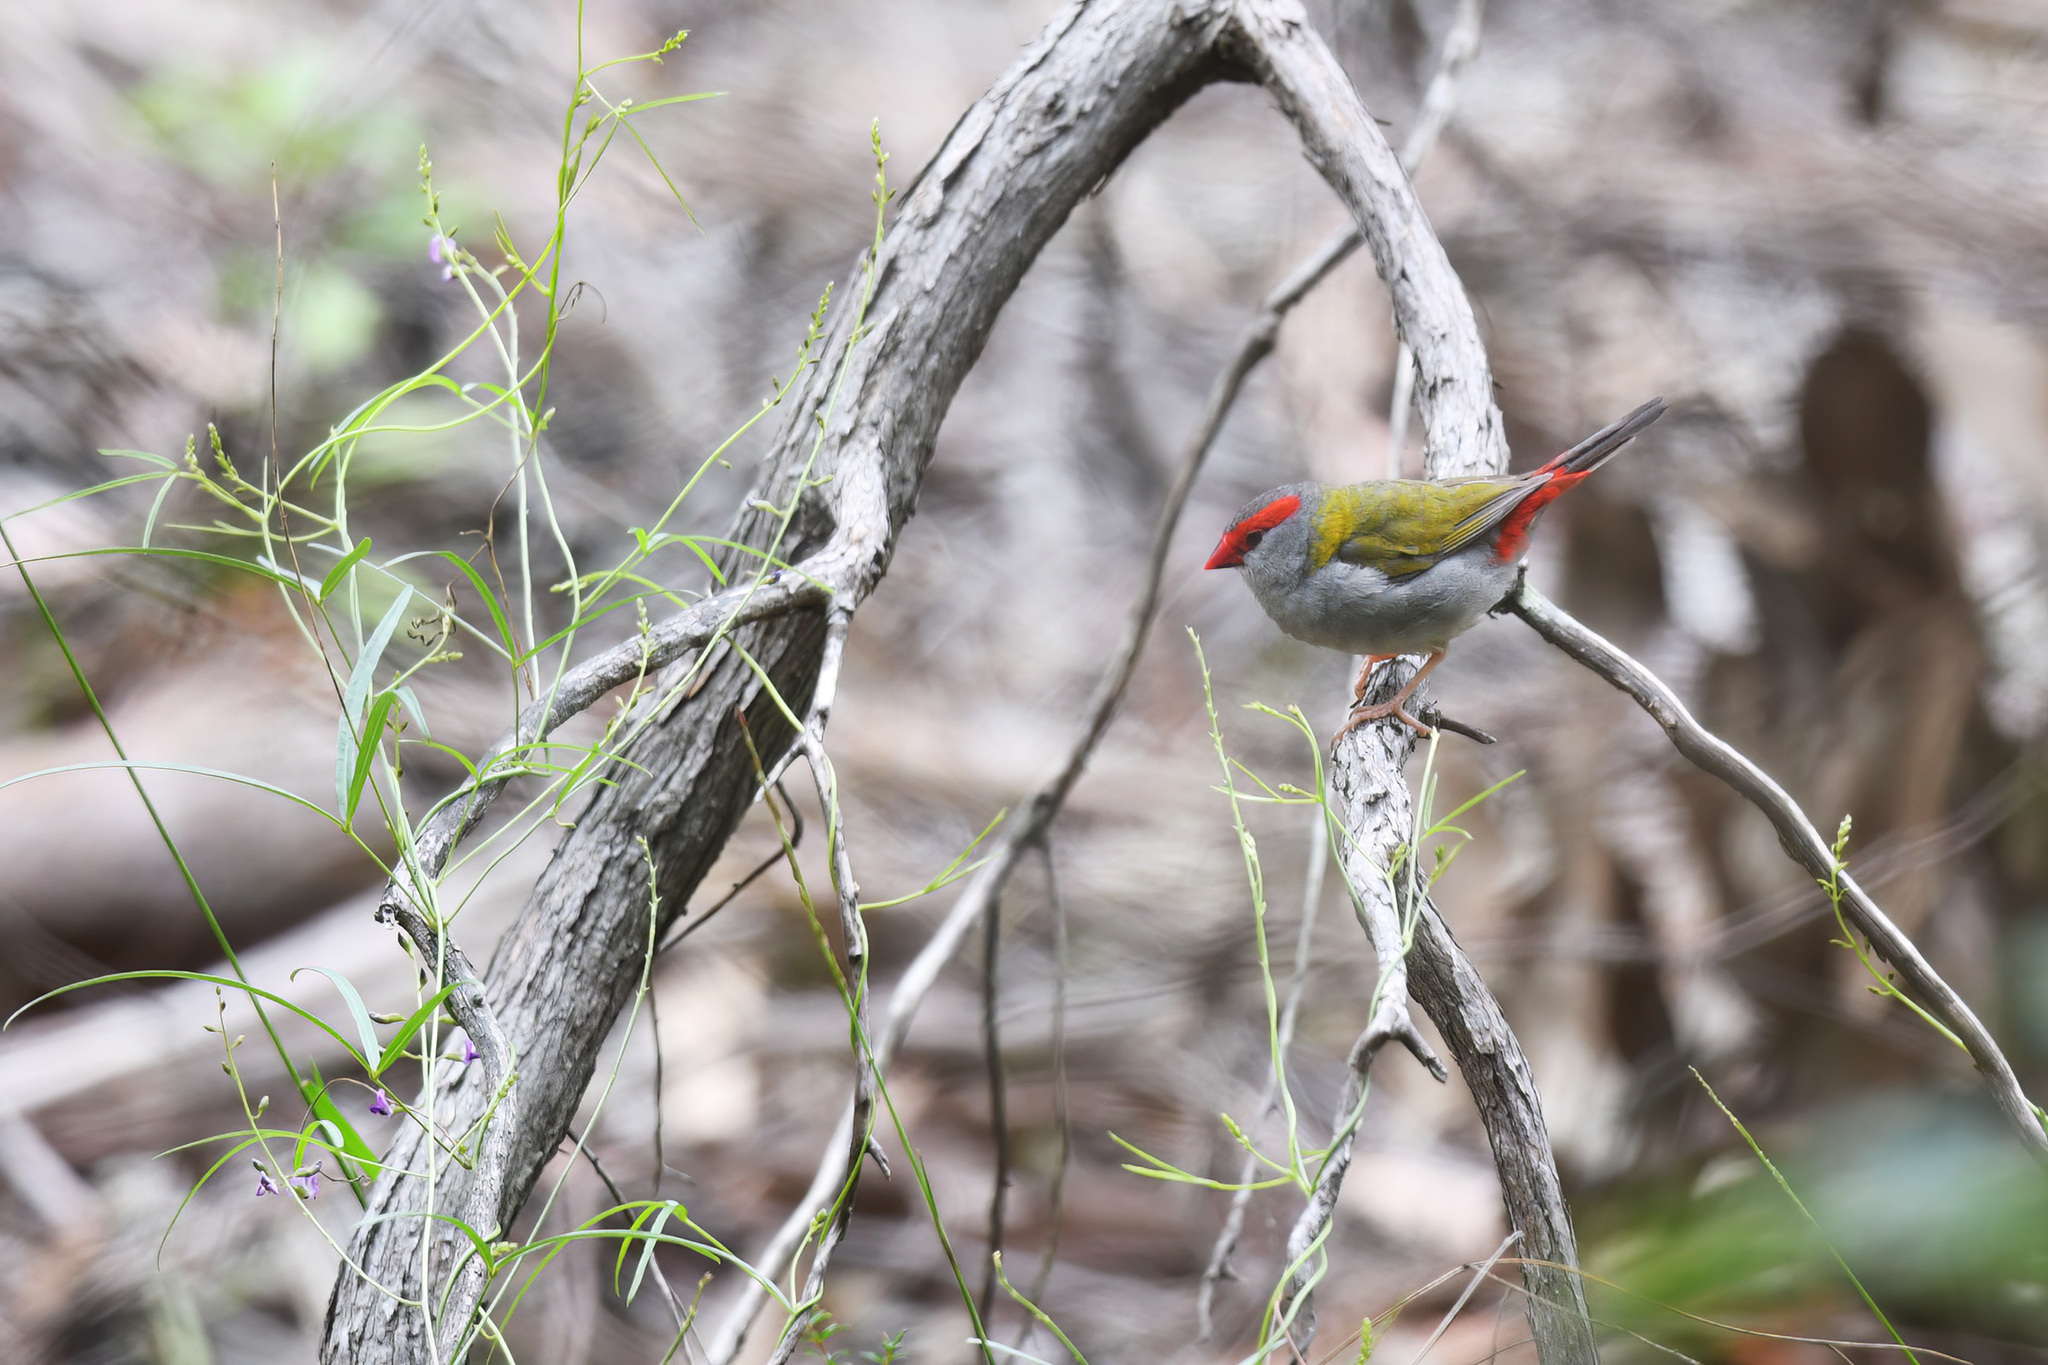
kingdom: Animalia
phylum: Chordata
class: Aves
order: Passeriformes
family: Estrildidae
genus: Neochmia
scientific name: Neochmia temporalis
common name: Red-browed finch
